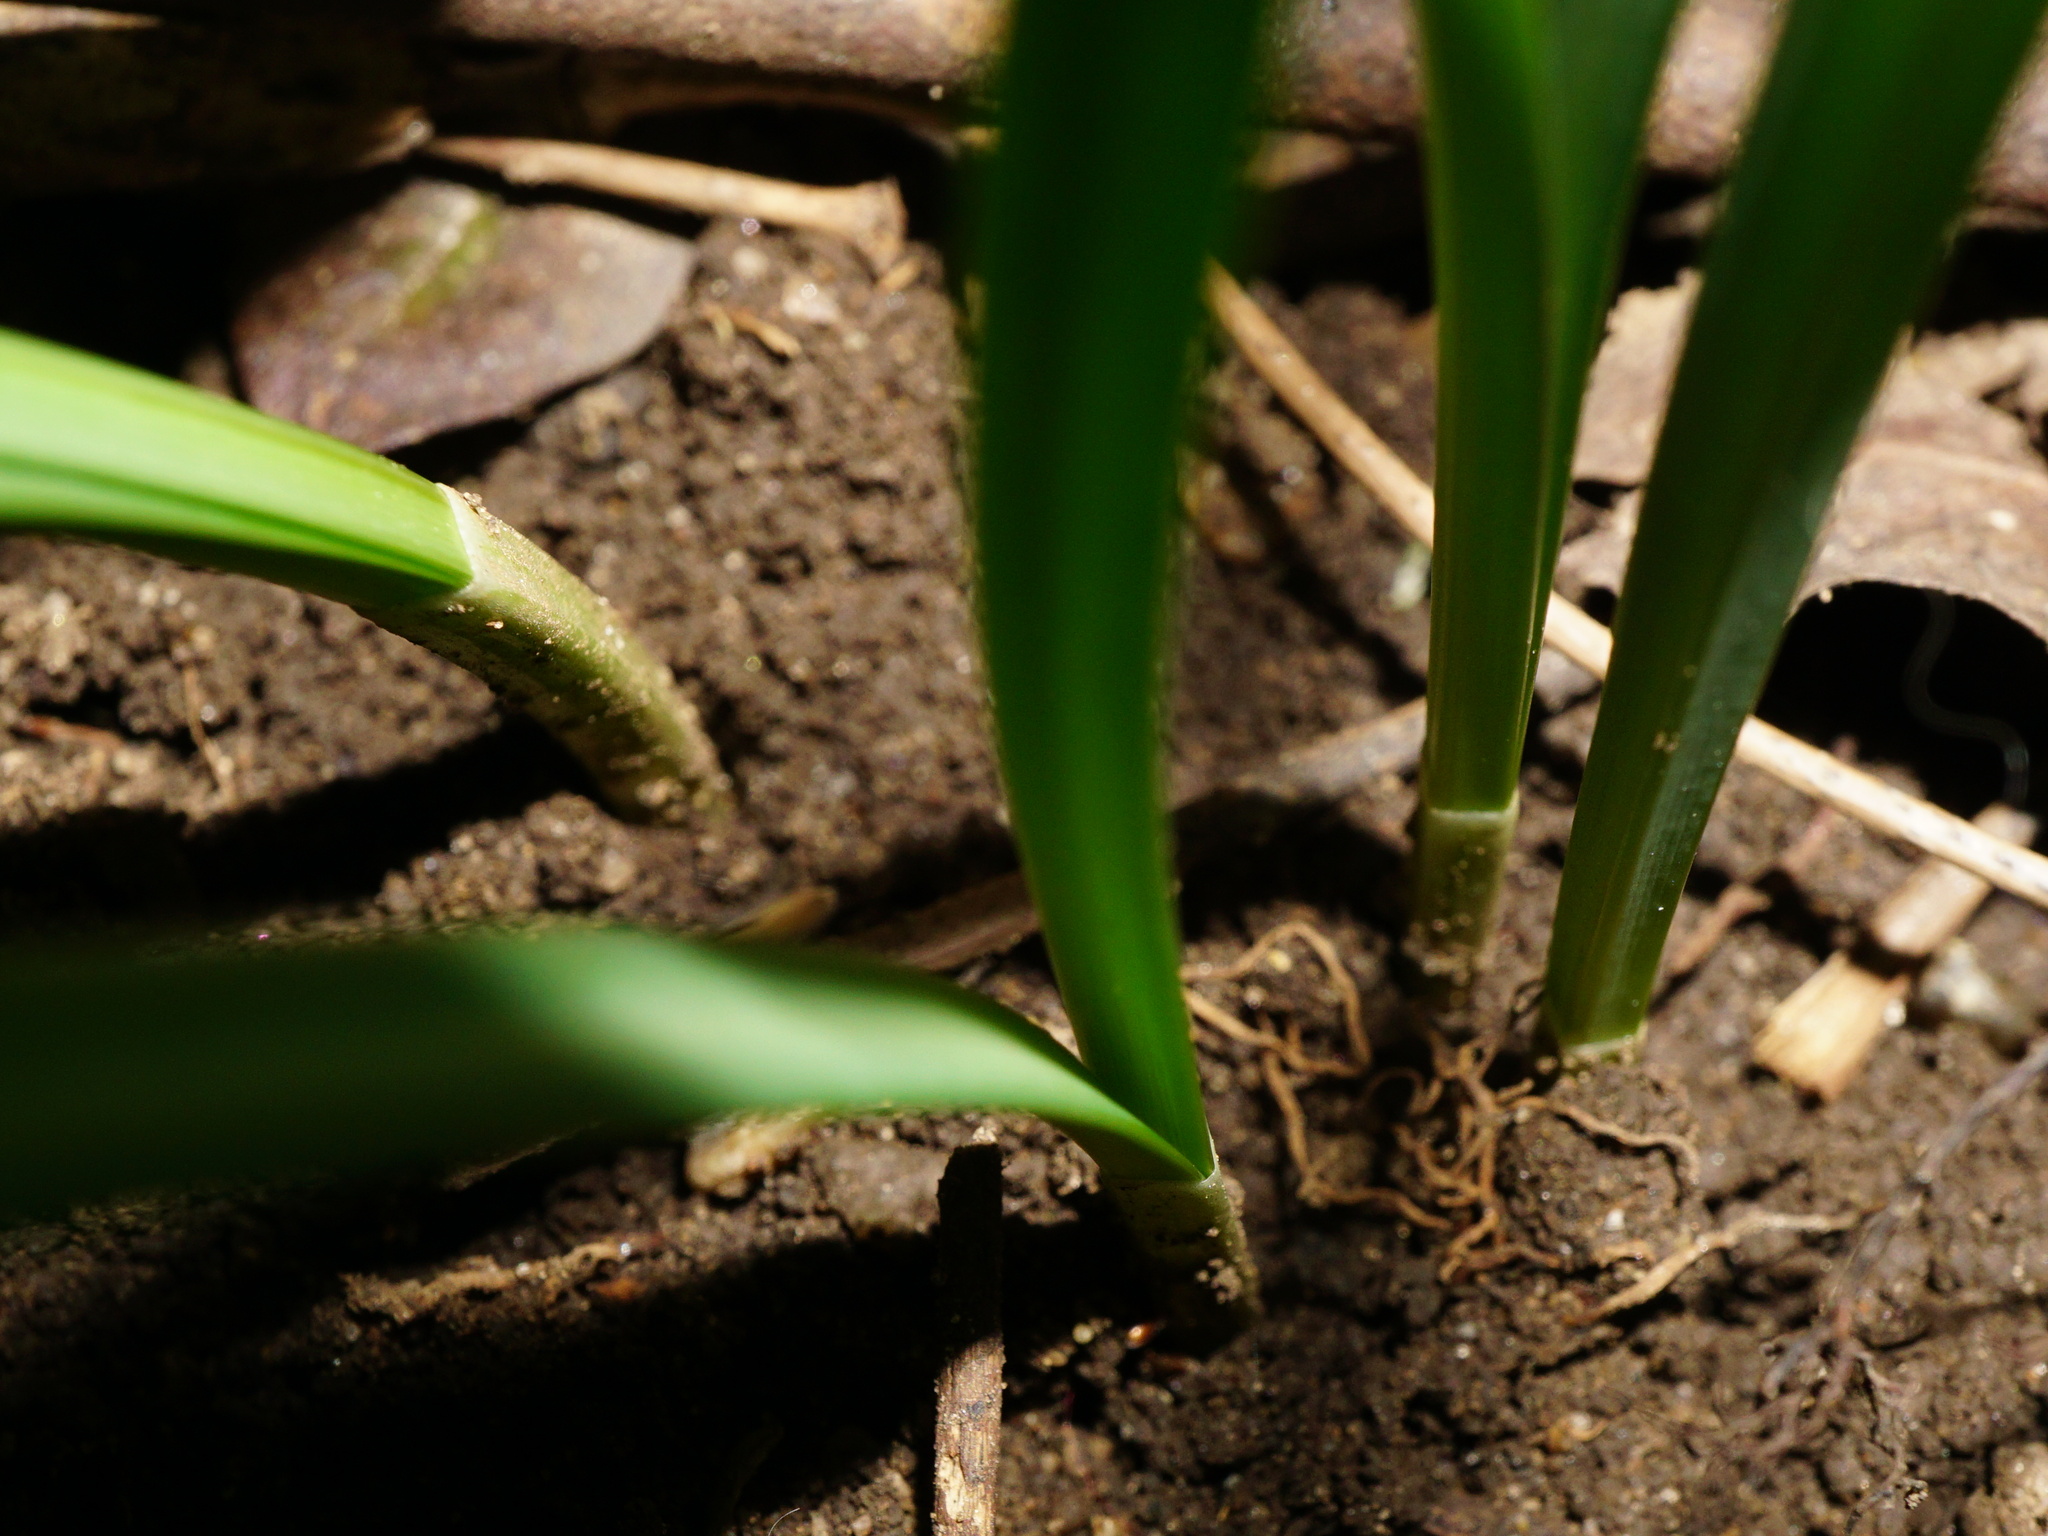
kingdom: Plantae
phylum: Tracheophyta
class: Liliopsida
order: Asparagales
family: Amaryllidaceae
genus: Galanthus
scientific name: Galanthus nivalis
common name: Snowdrop
